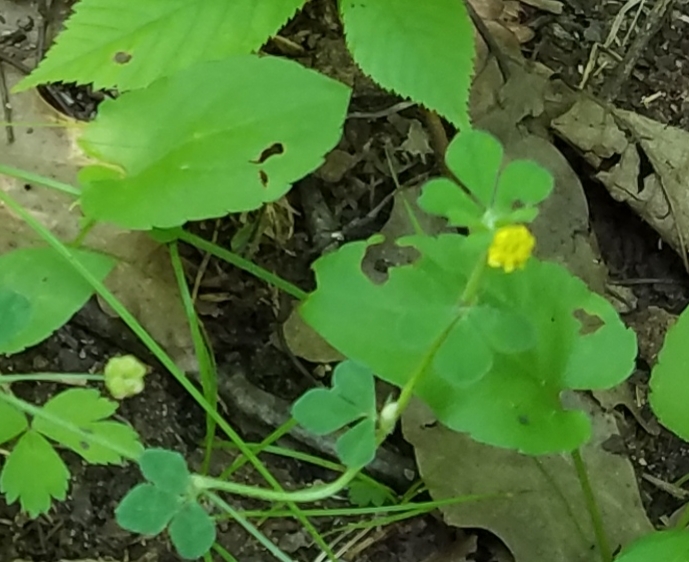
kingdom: Plantae
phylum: Tracheophyta
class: Magnoliopsida
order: Fabales
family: Fabaceae
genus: Medicago
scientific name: Medicago lupulina
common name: Black medick
